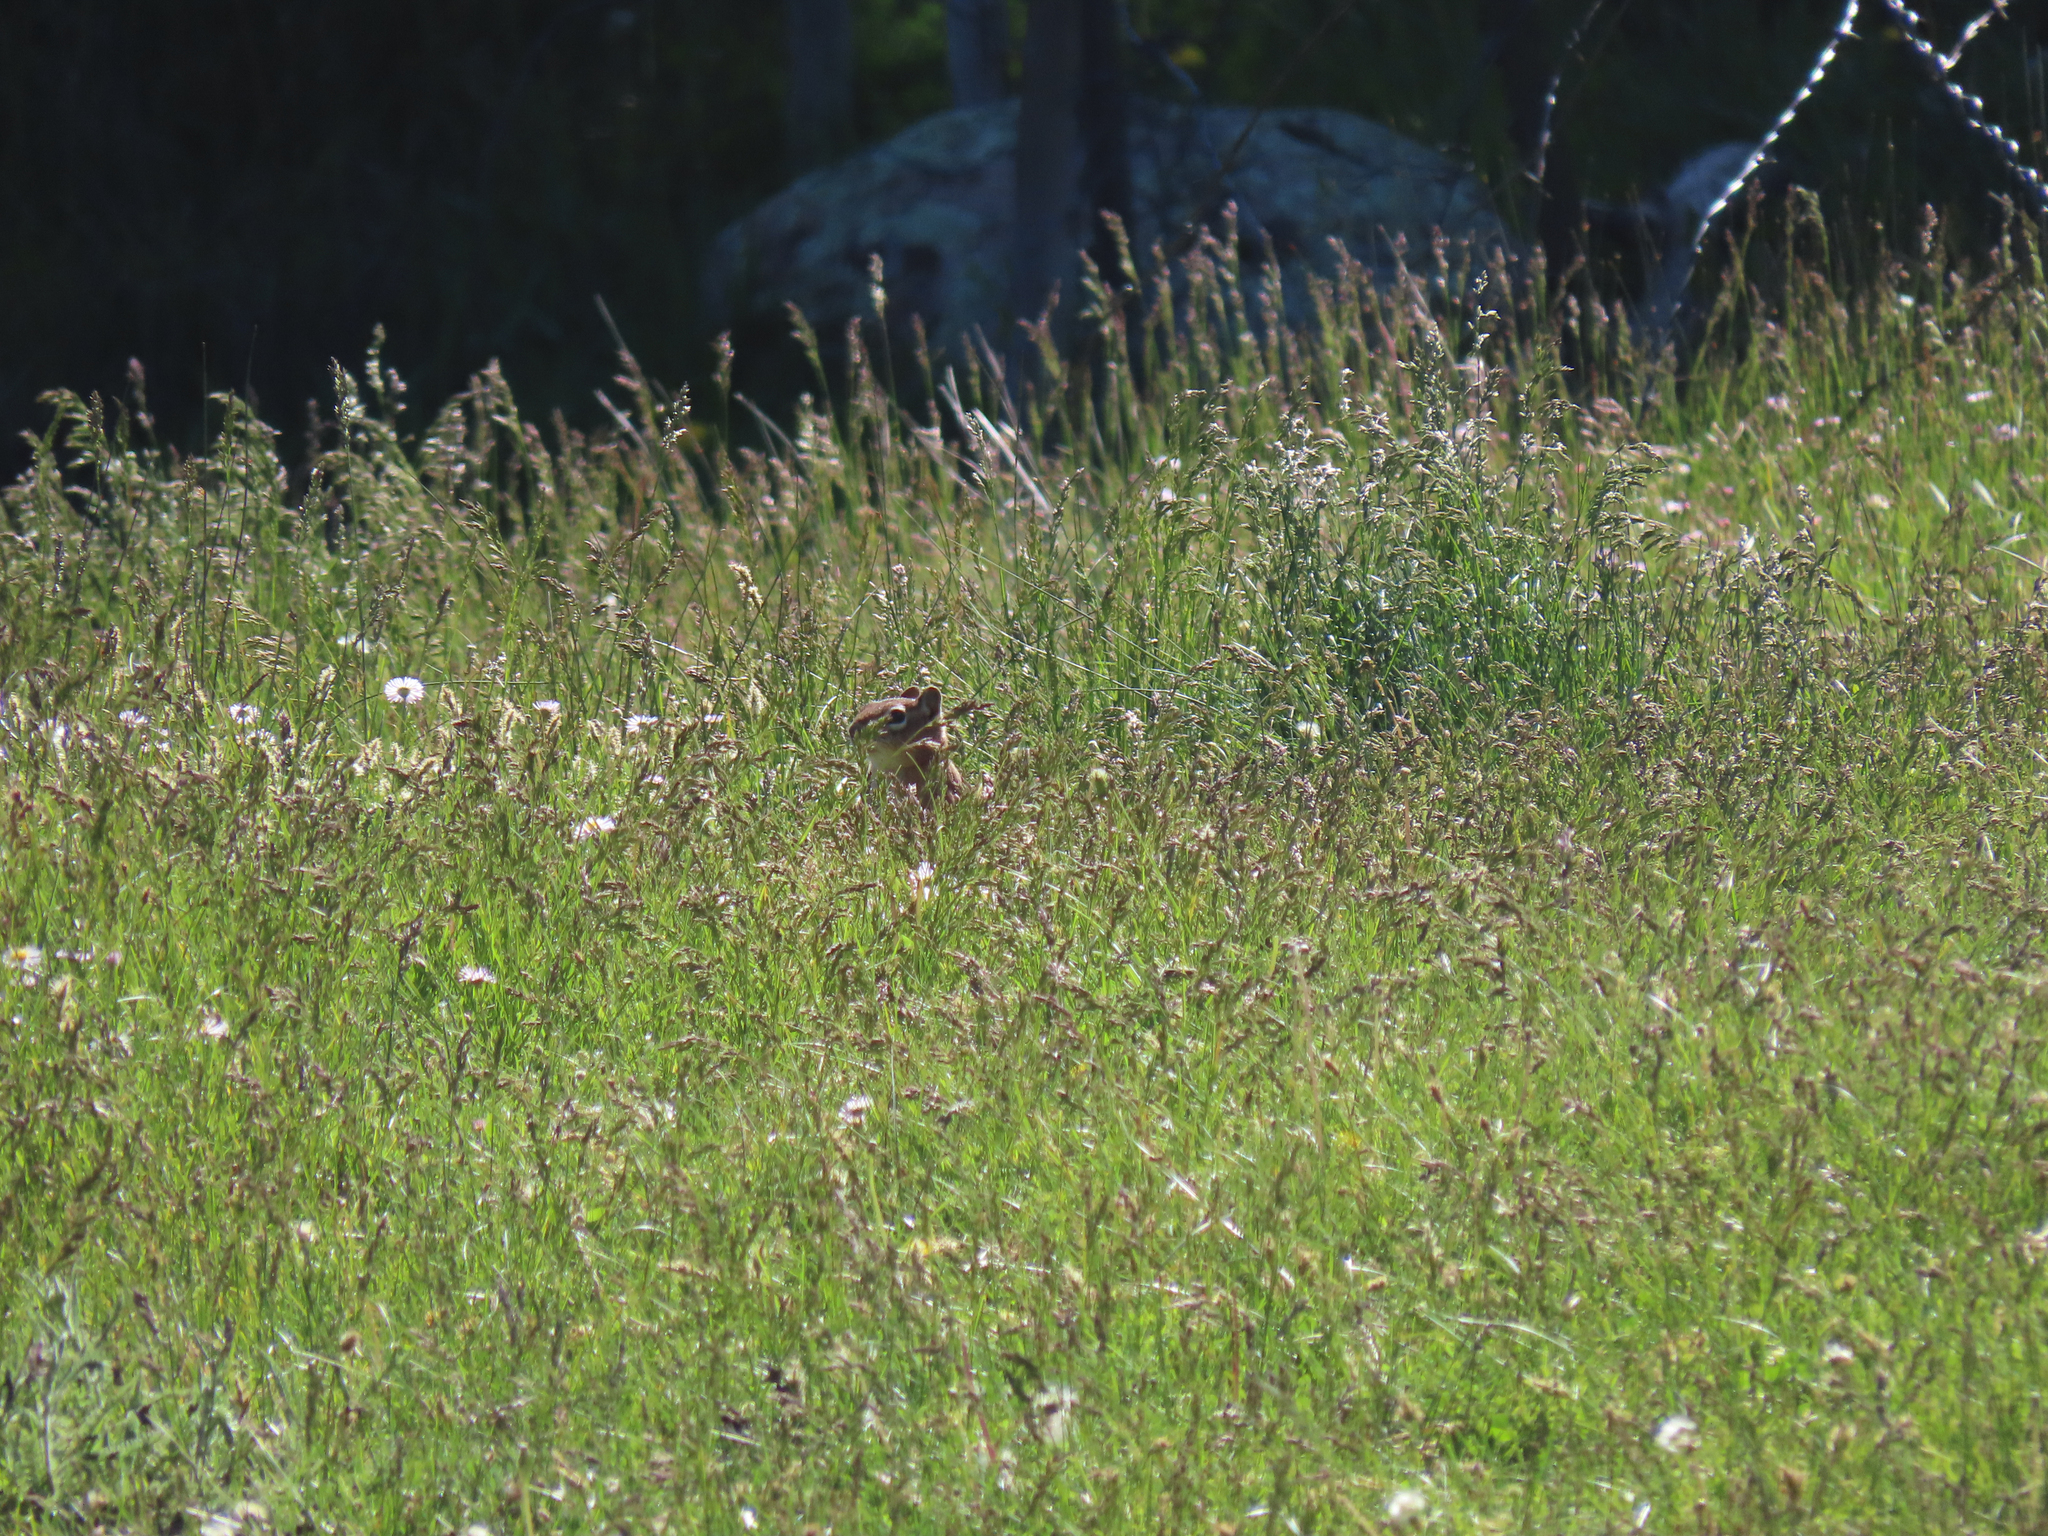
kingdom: Animalia
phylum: Chordata
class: Mammalia
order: Rodentia
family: Sciuridae
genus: Callospermophilus
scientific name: Callospermophilus lateralis
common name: Golden-mantled ground squirrel
